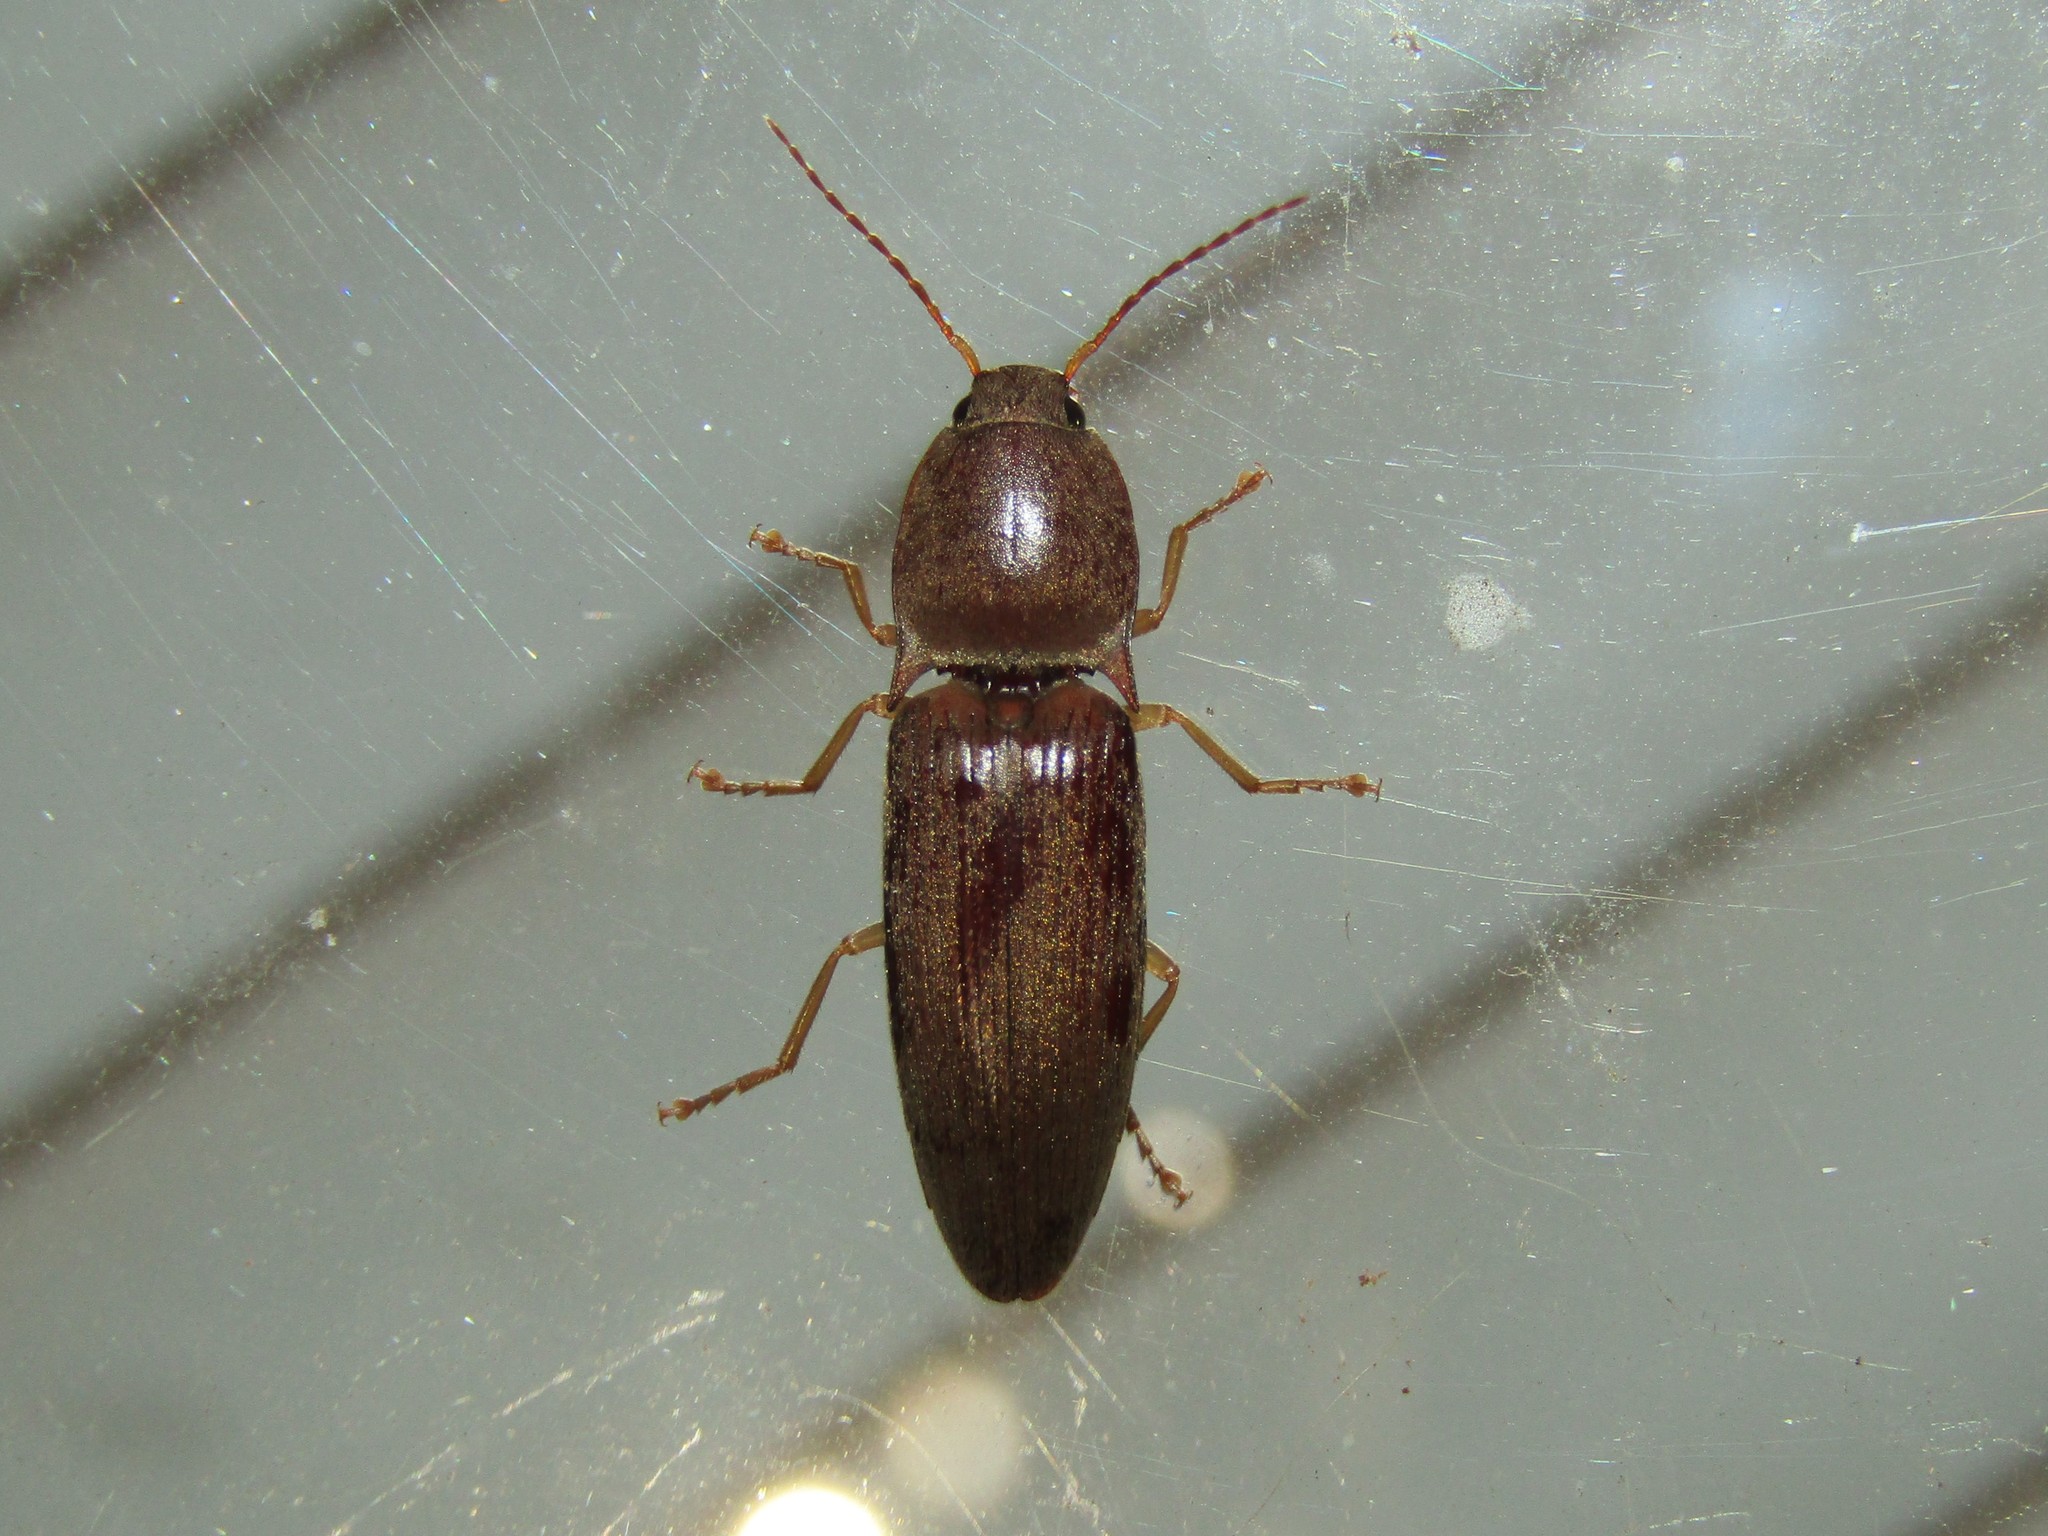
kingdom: Animalia
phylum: Arthropoda
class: Insecta
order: Coleoptera
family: Elateridae
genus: Monocrepidius
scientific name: Monocrepidius lividus
